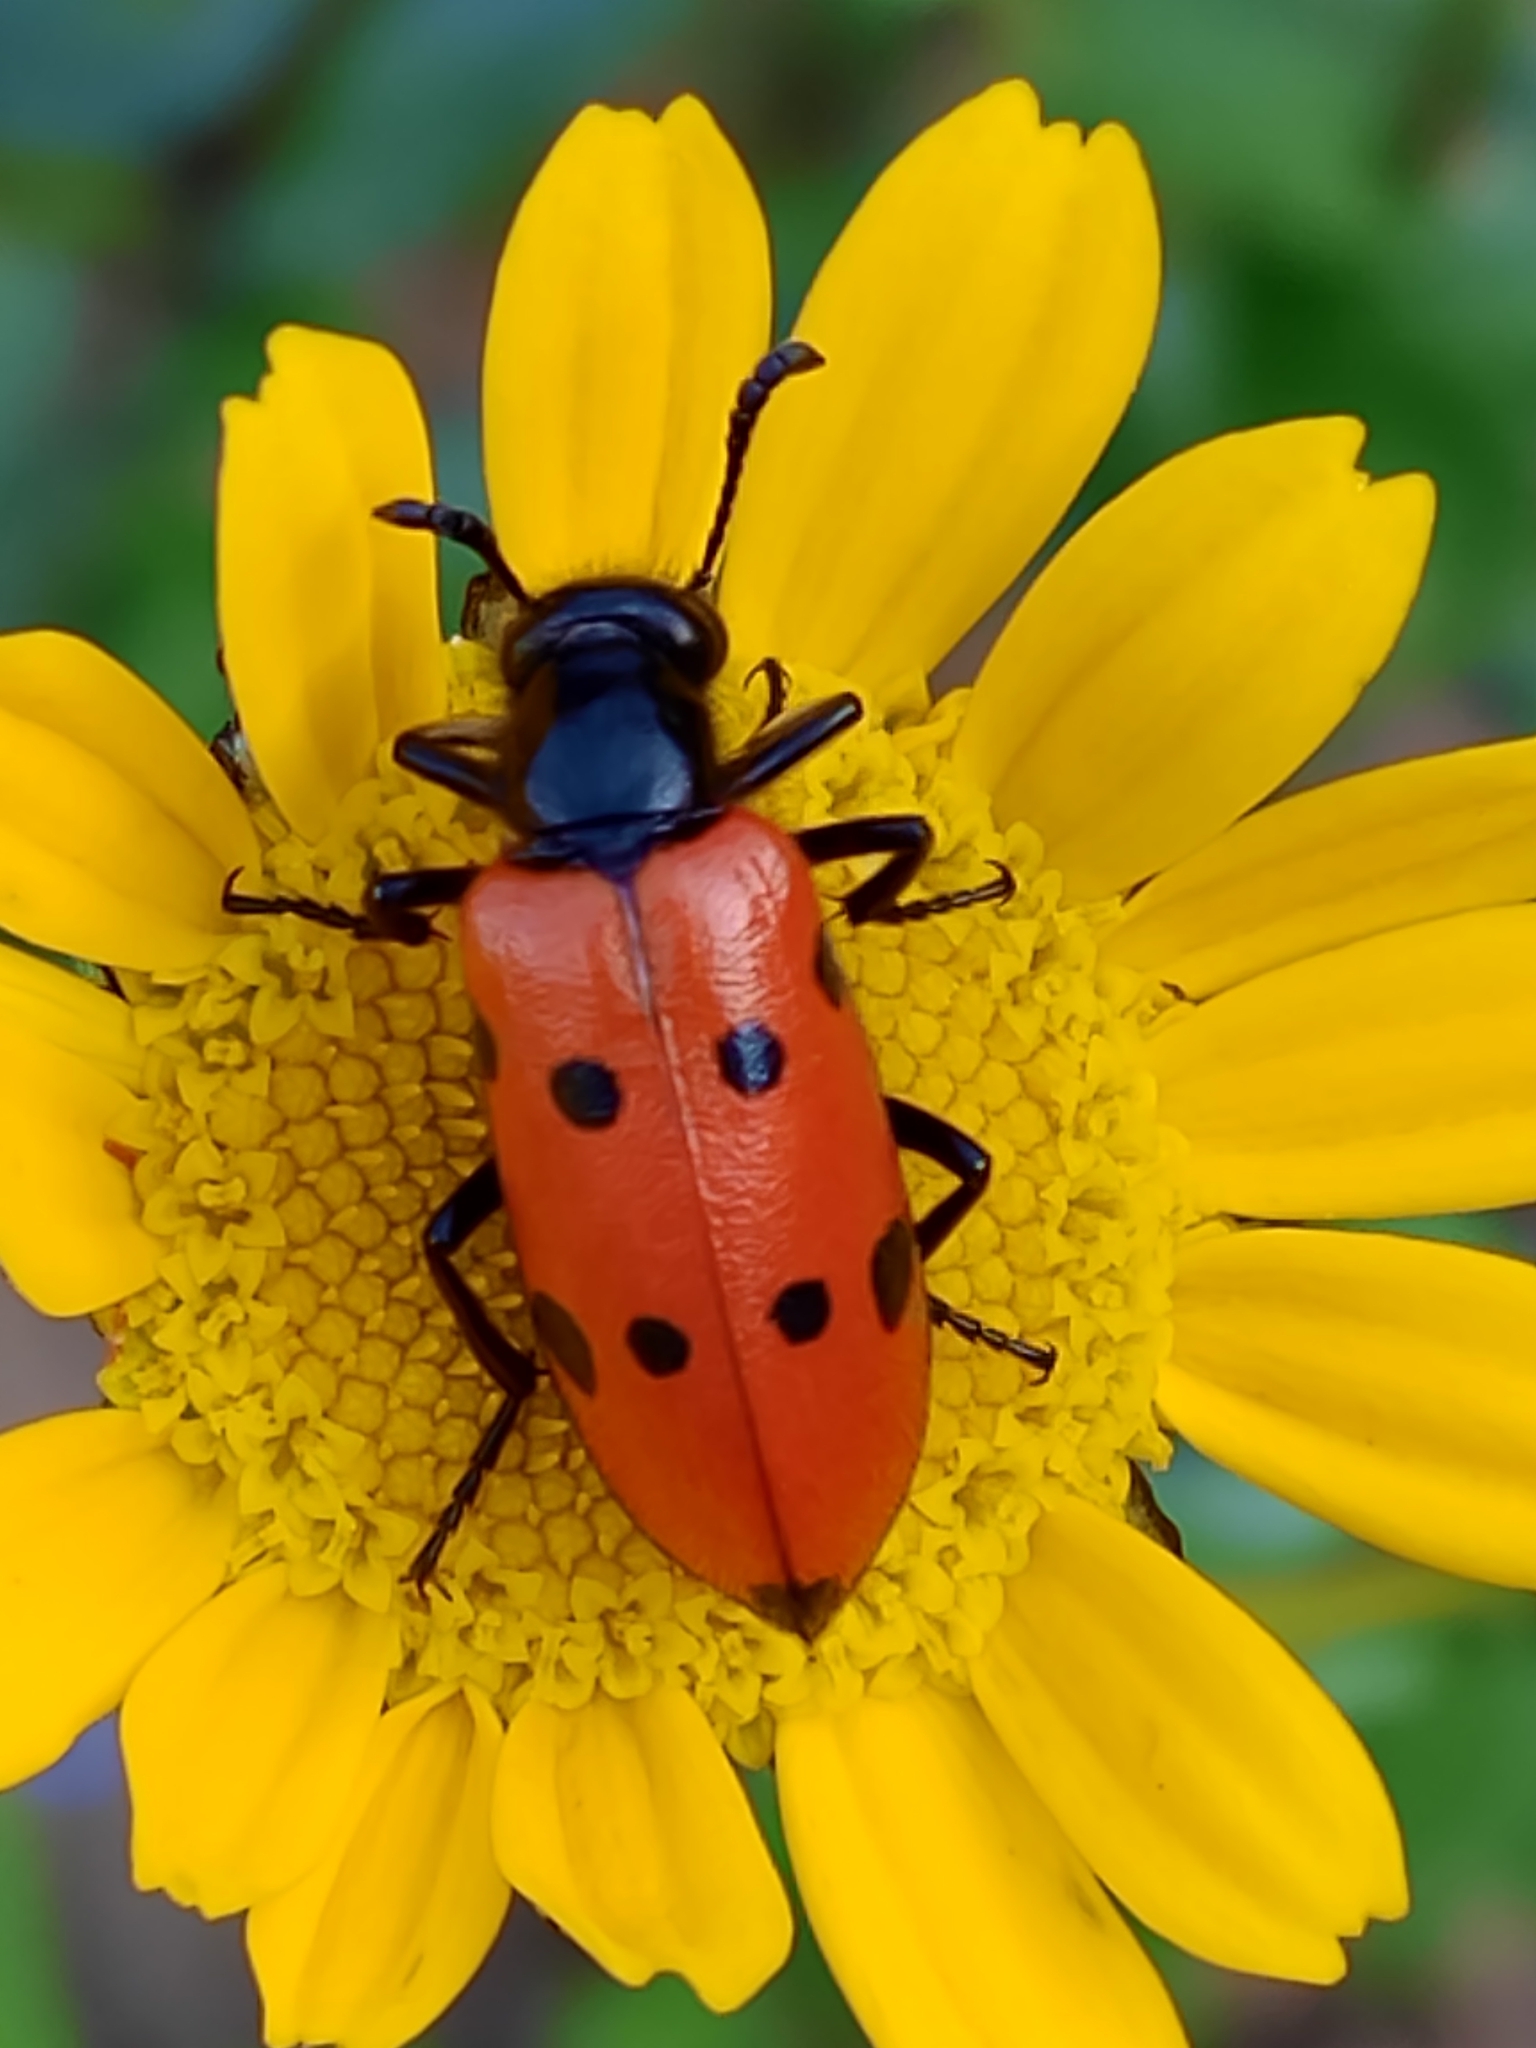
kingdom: Animalia
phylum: Arthropoda
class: Insecta
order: Coleoptera
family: Meloidae
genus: Mylabris
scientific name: Mylabris quadripunctata
